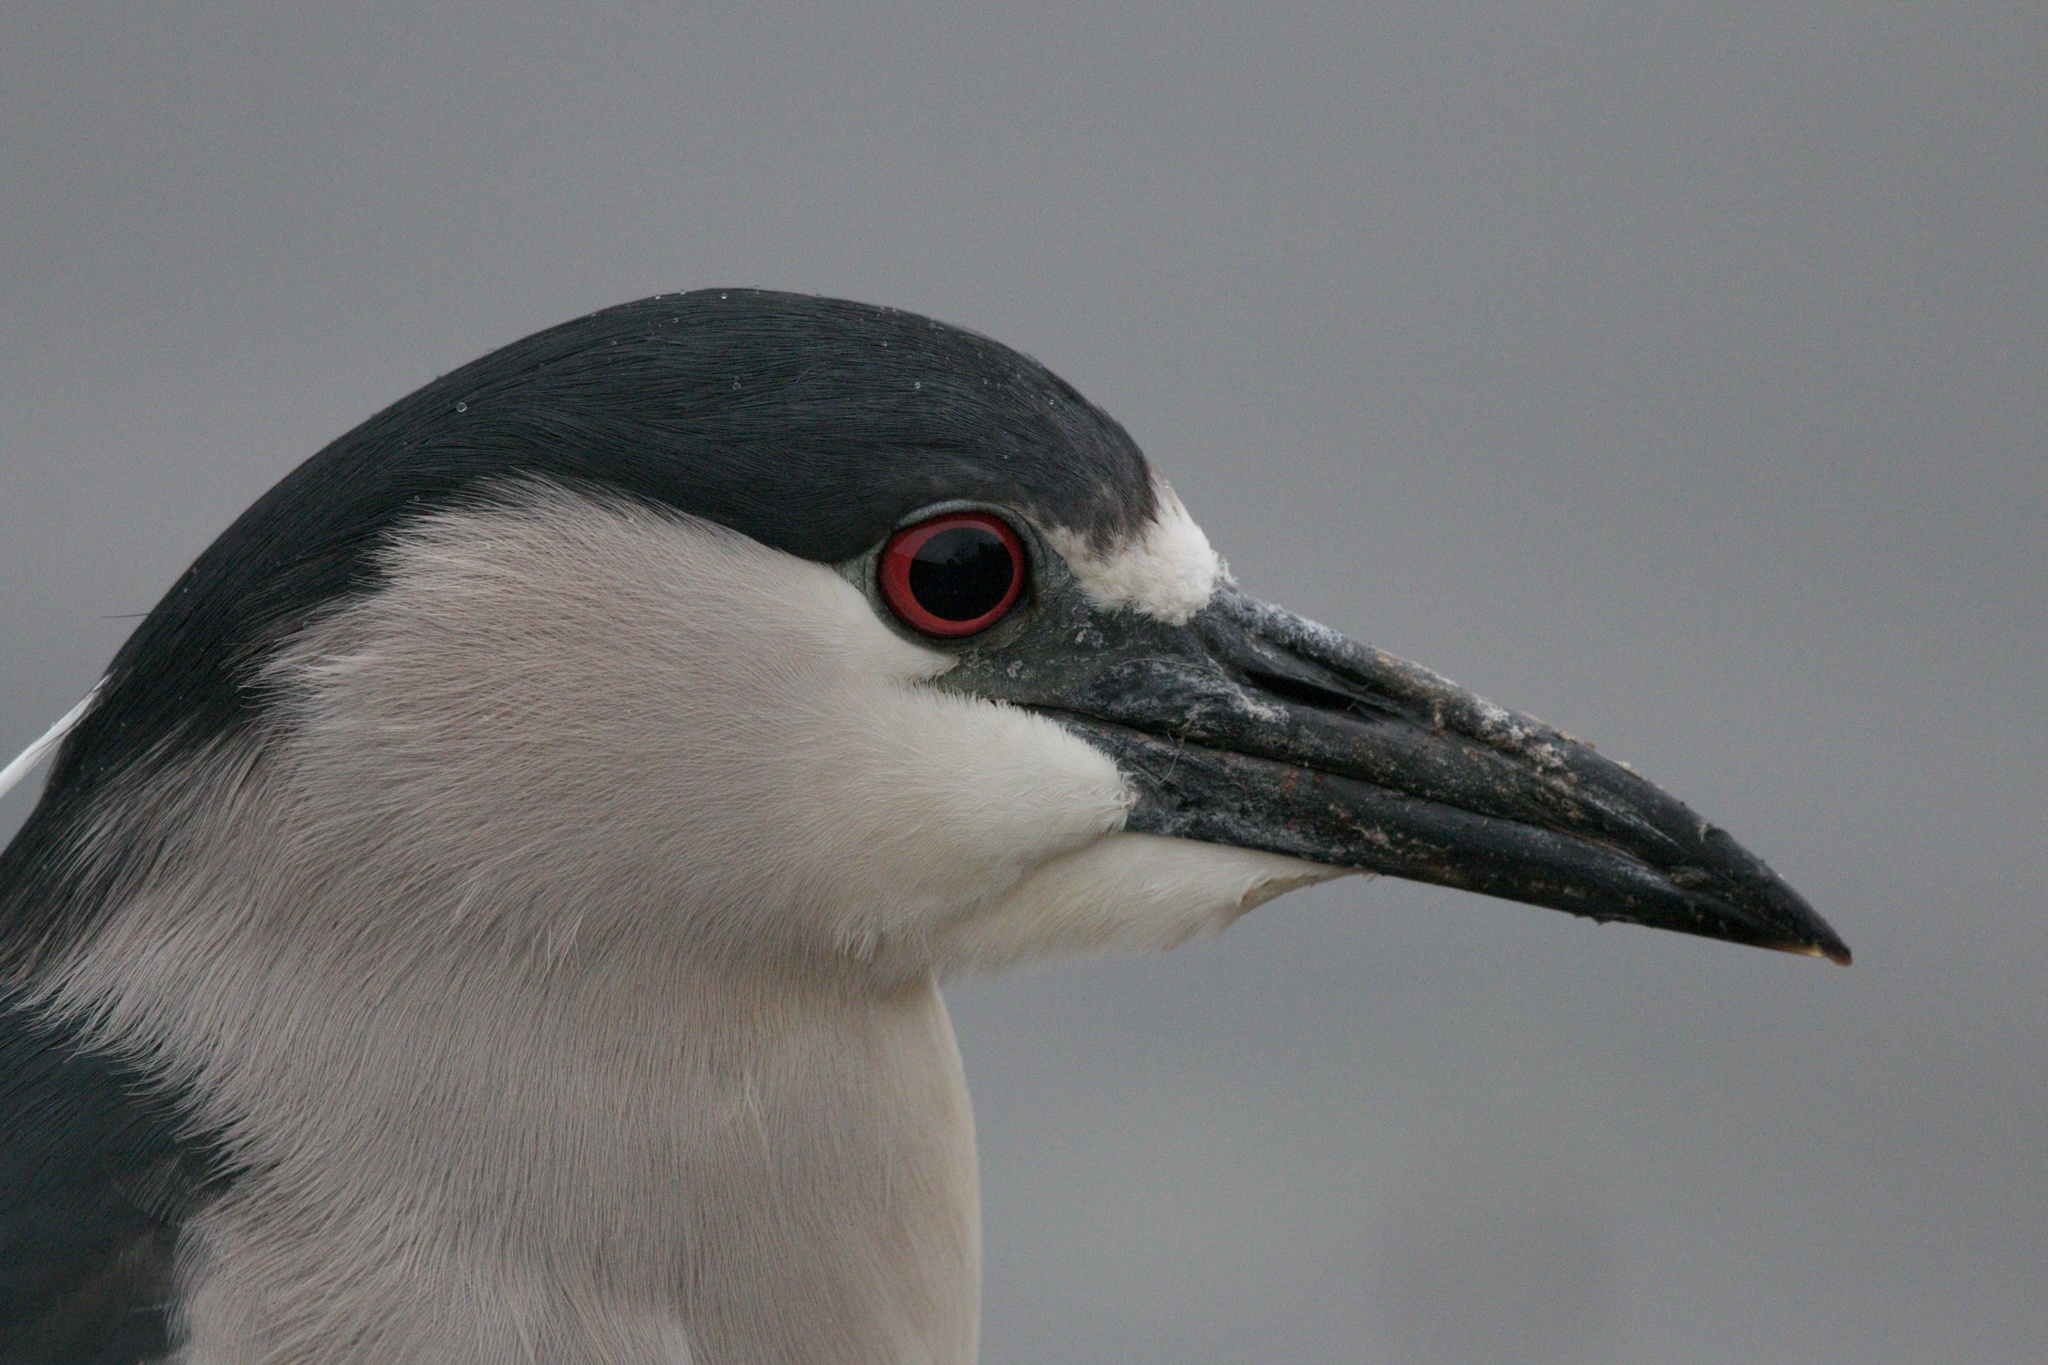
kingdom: Animalia
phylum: Chordata
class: Aves
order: Pelecaniformes
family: Ardeidae
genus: Nycticorax
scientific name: Nycticorax nycticorax
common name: Black-crowned night heron
